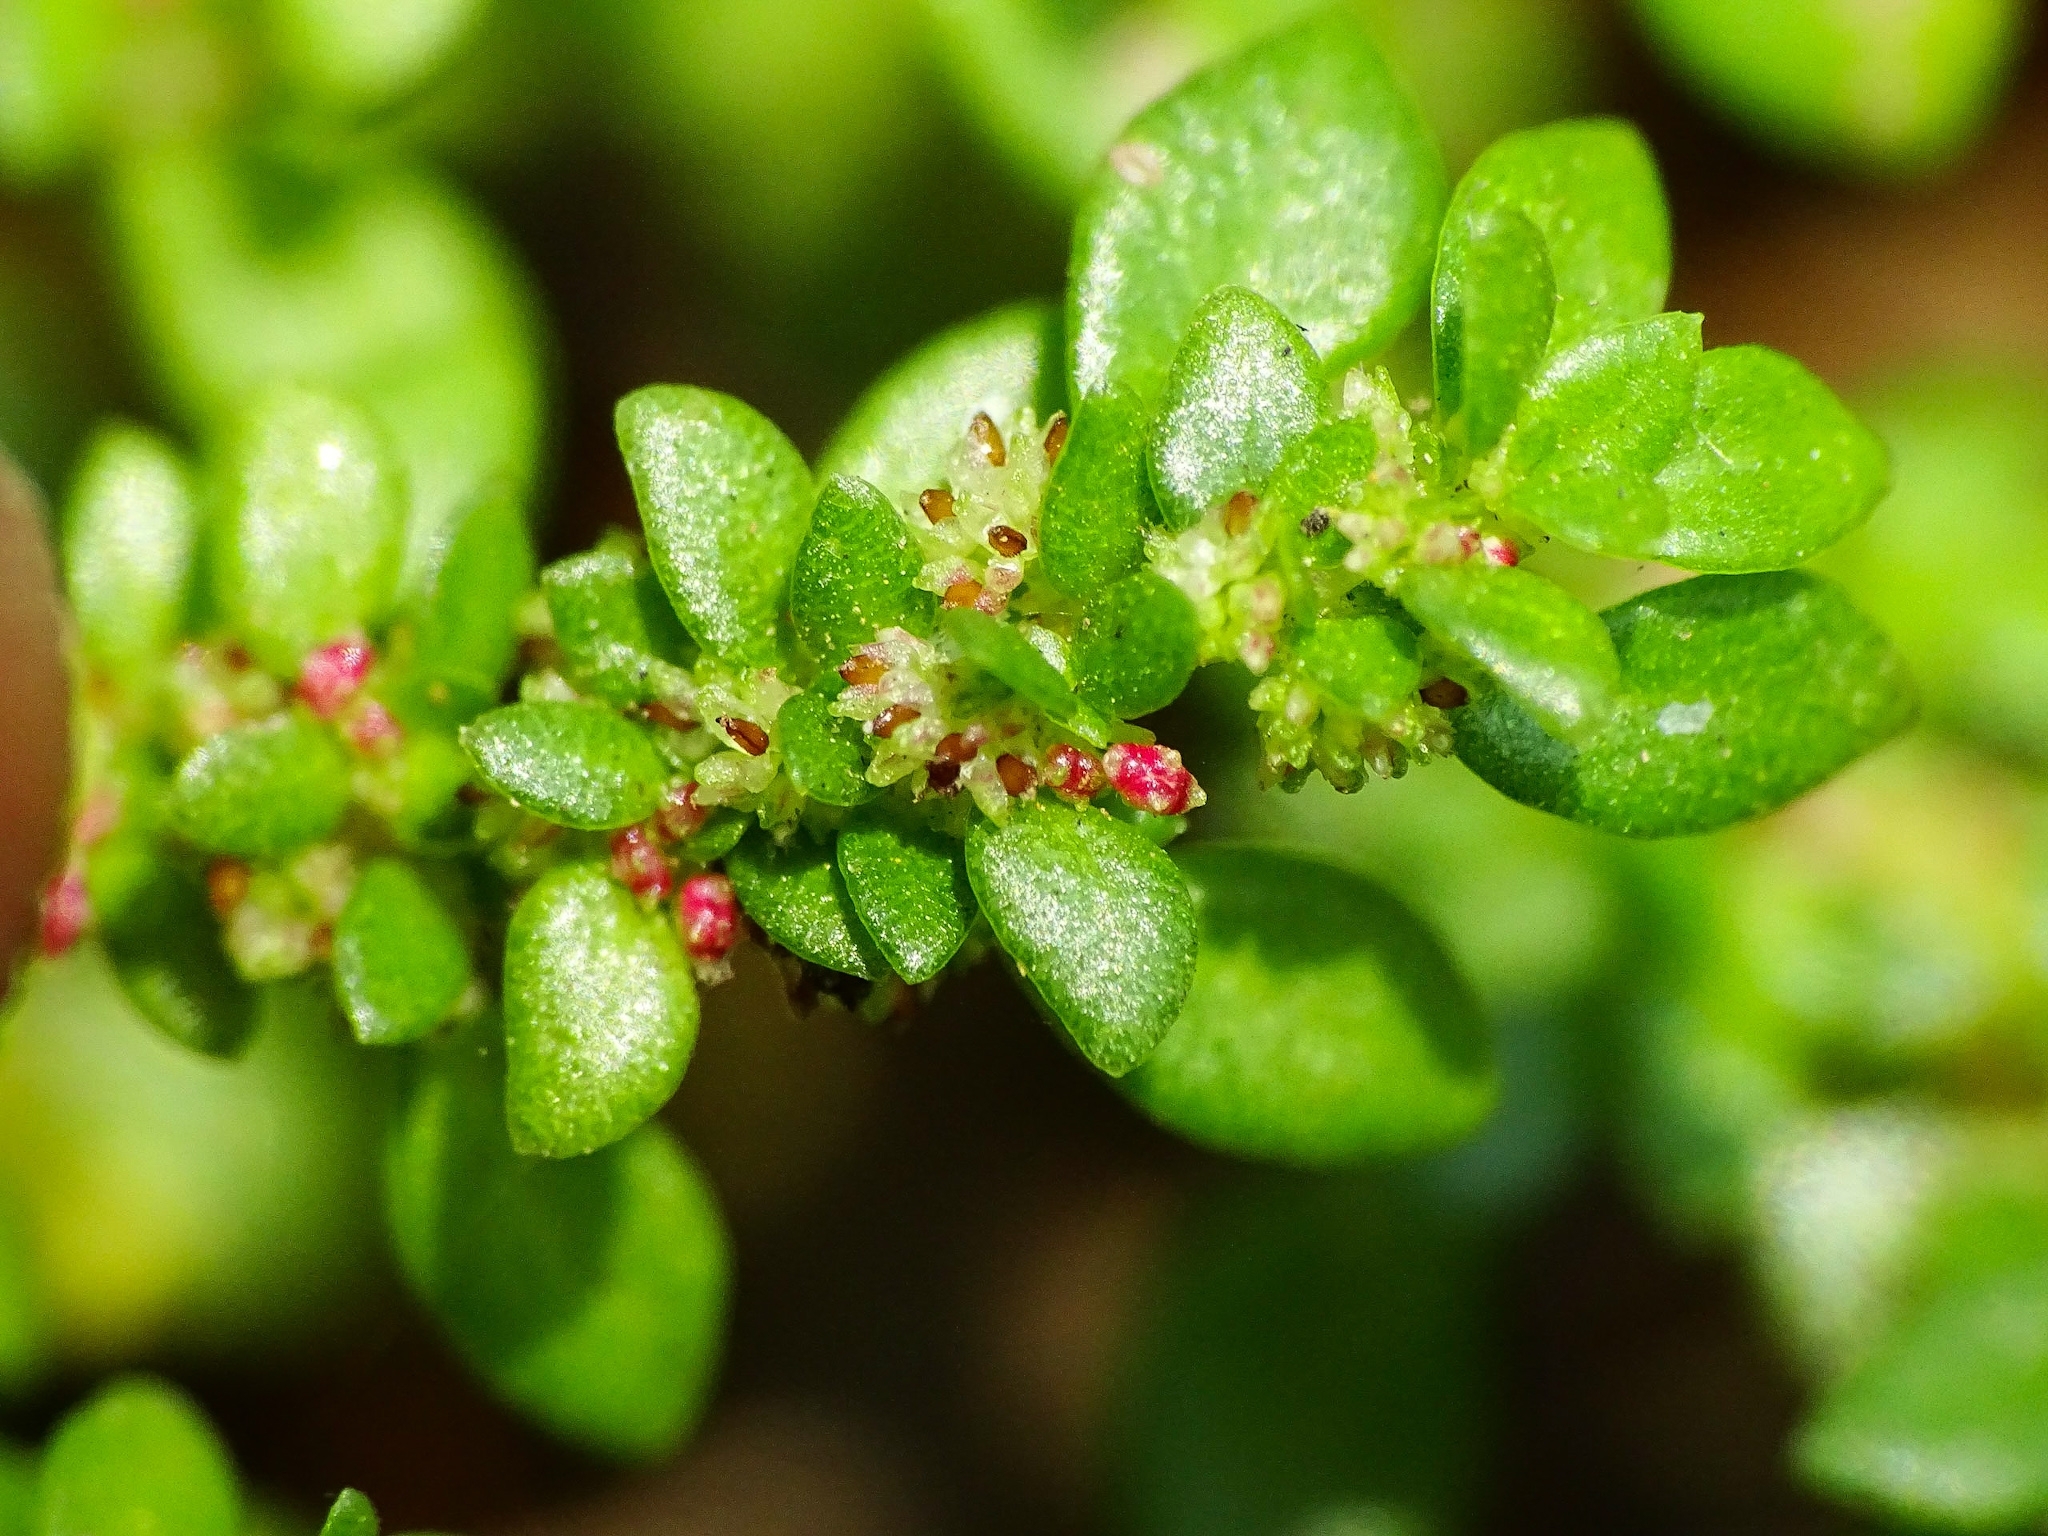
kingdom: Plantae
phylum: Tracheophyta
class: Magnoliopsida
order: Rosales
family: Urticaceae
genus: Pilea
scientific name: Pilea microphylla
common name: Artillery-plant
